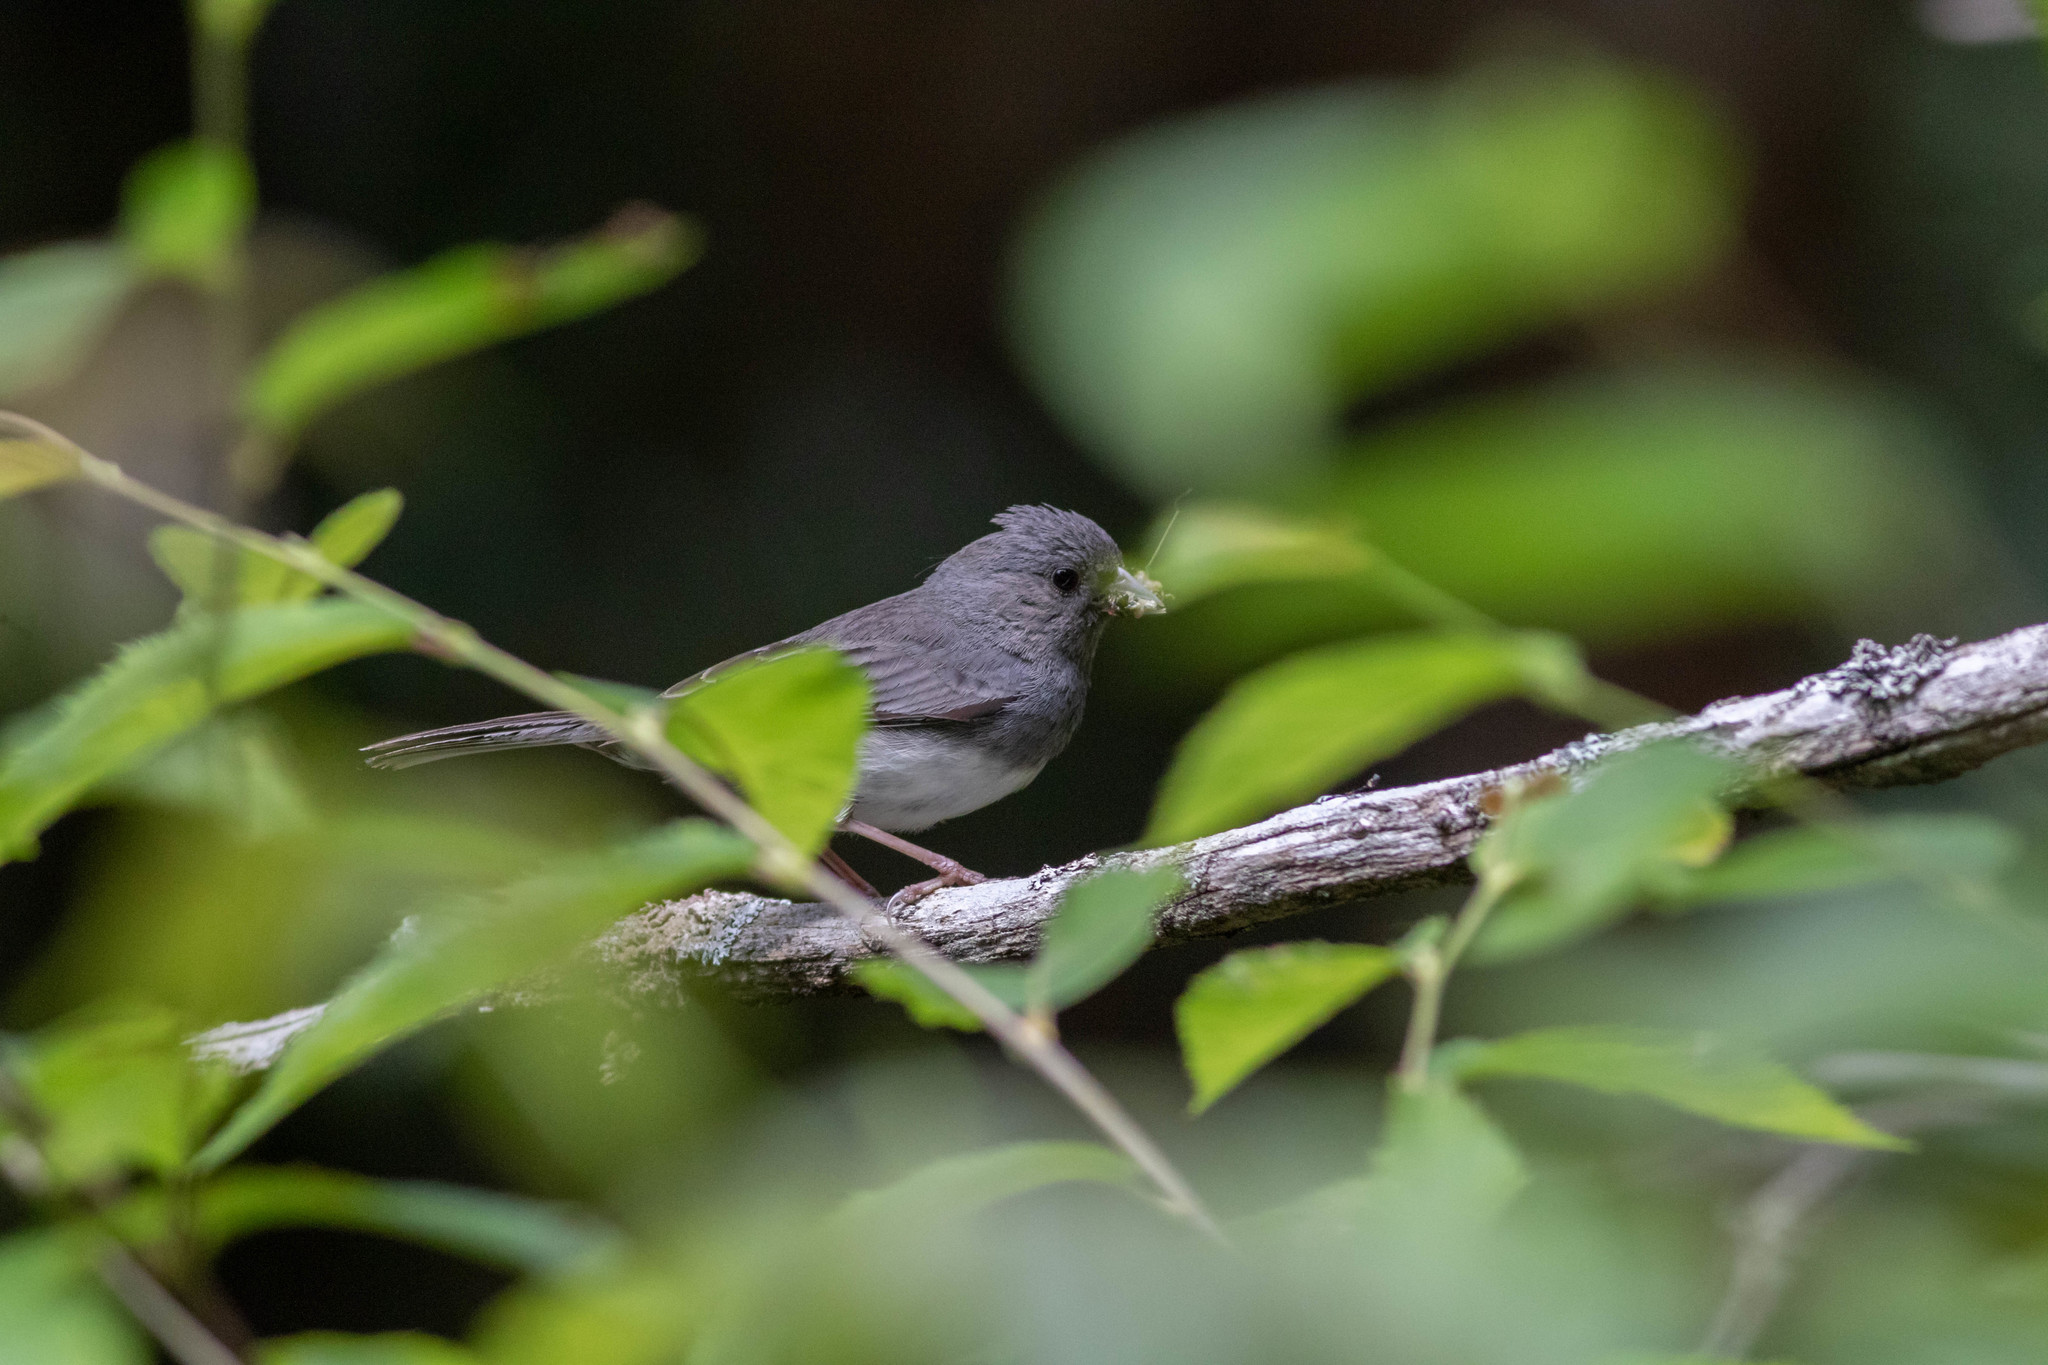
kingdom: Animalia
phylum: Chordata
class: Aves
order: Passeriformes
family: Passerellidae
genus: Junco
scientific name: Junco hyemalis
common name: Dark-eyed junco
